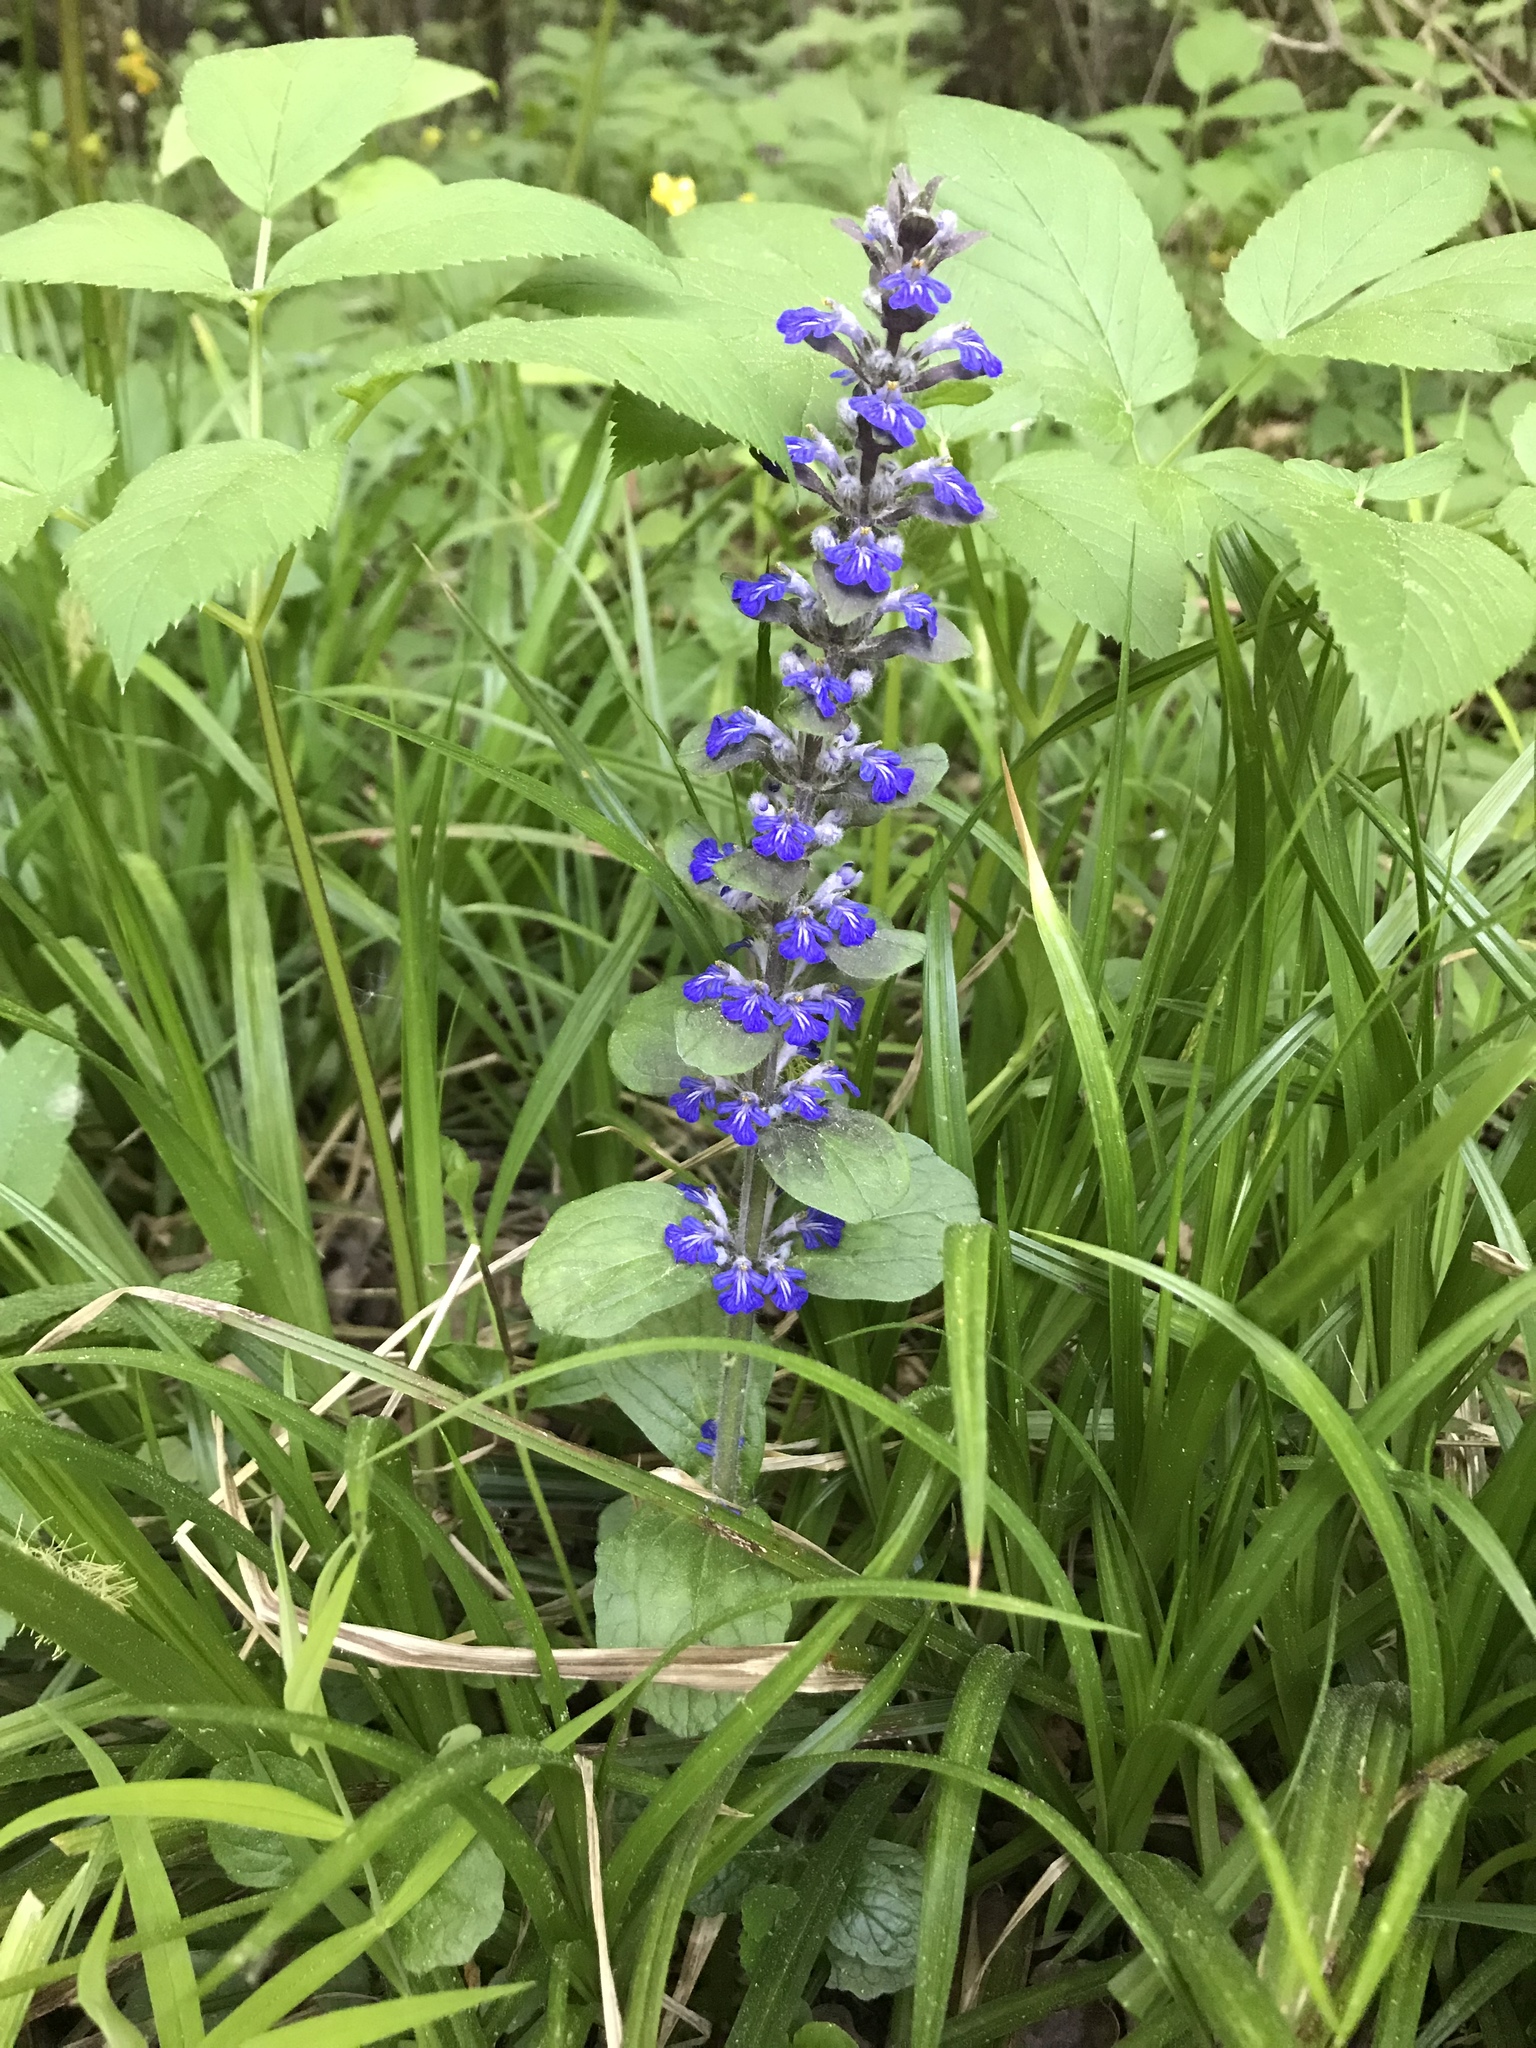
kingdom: Plantae
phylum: Tracheophyta
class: Magnoliopsida
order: Lamiales
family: Lamiaceae
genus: Ajuga
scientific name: Ajuga reptans
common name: Bugle
